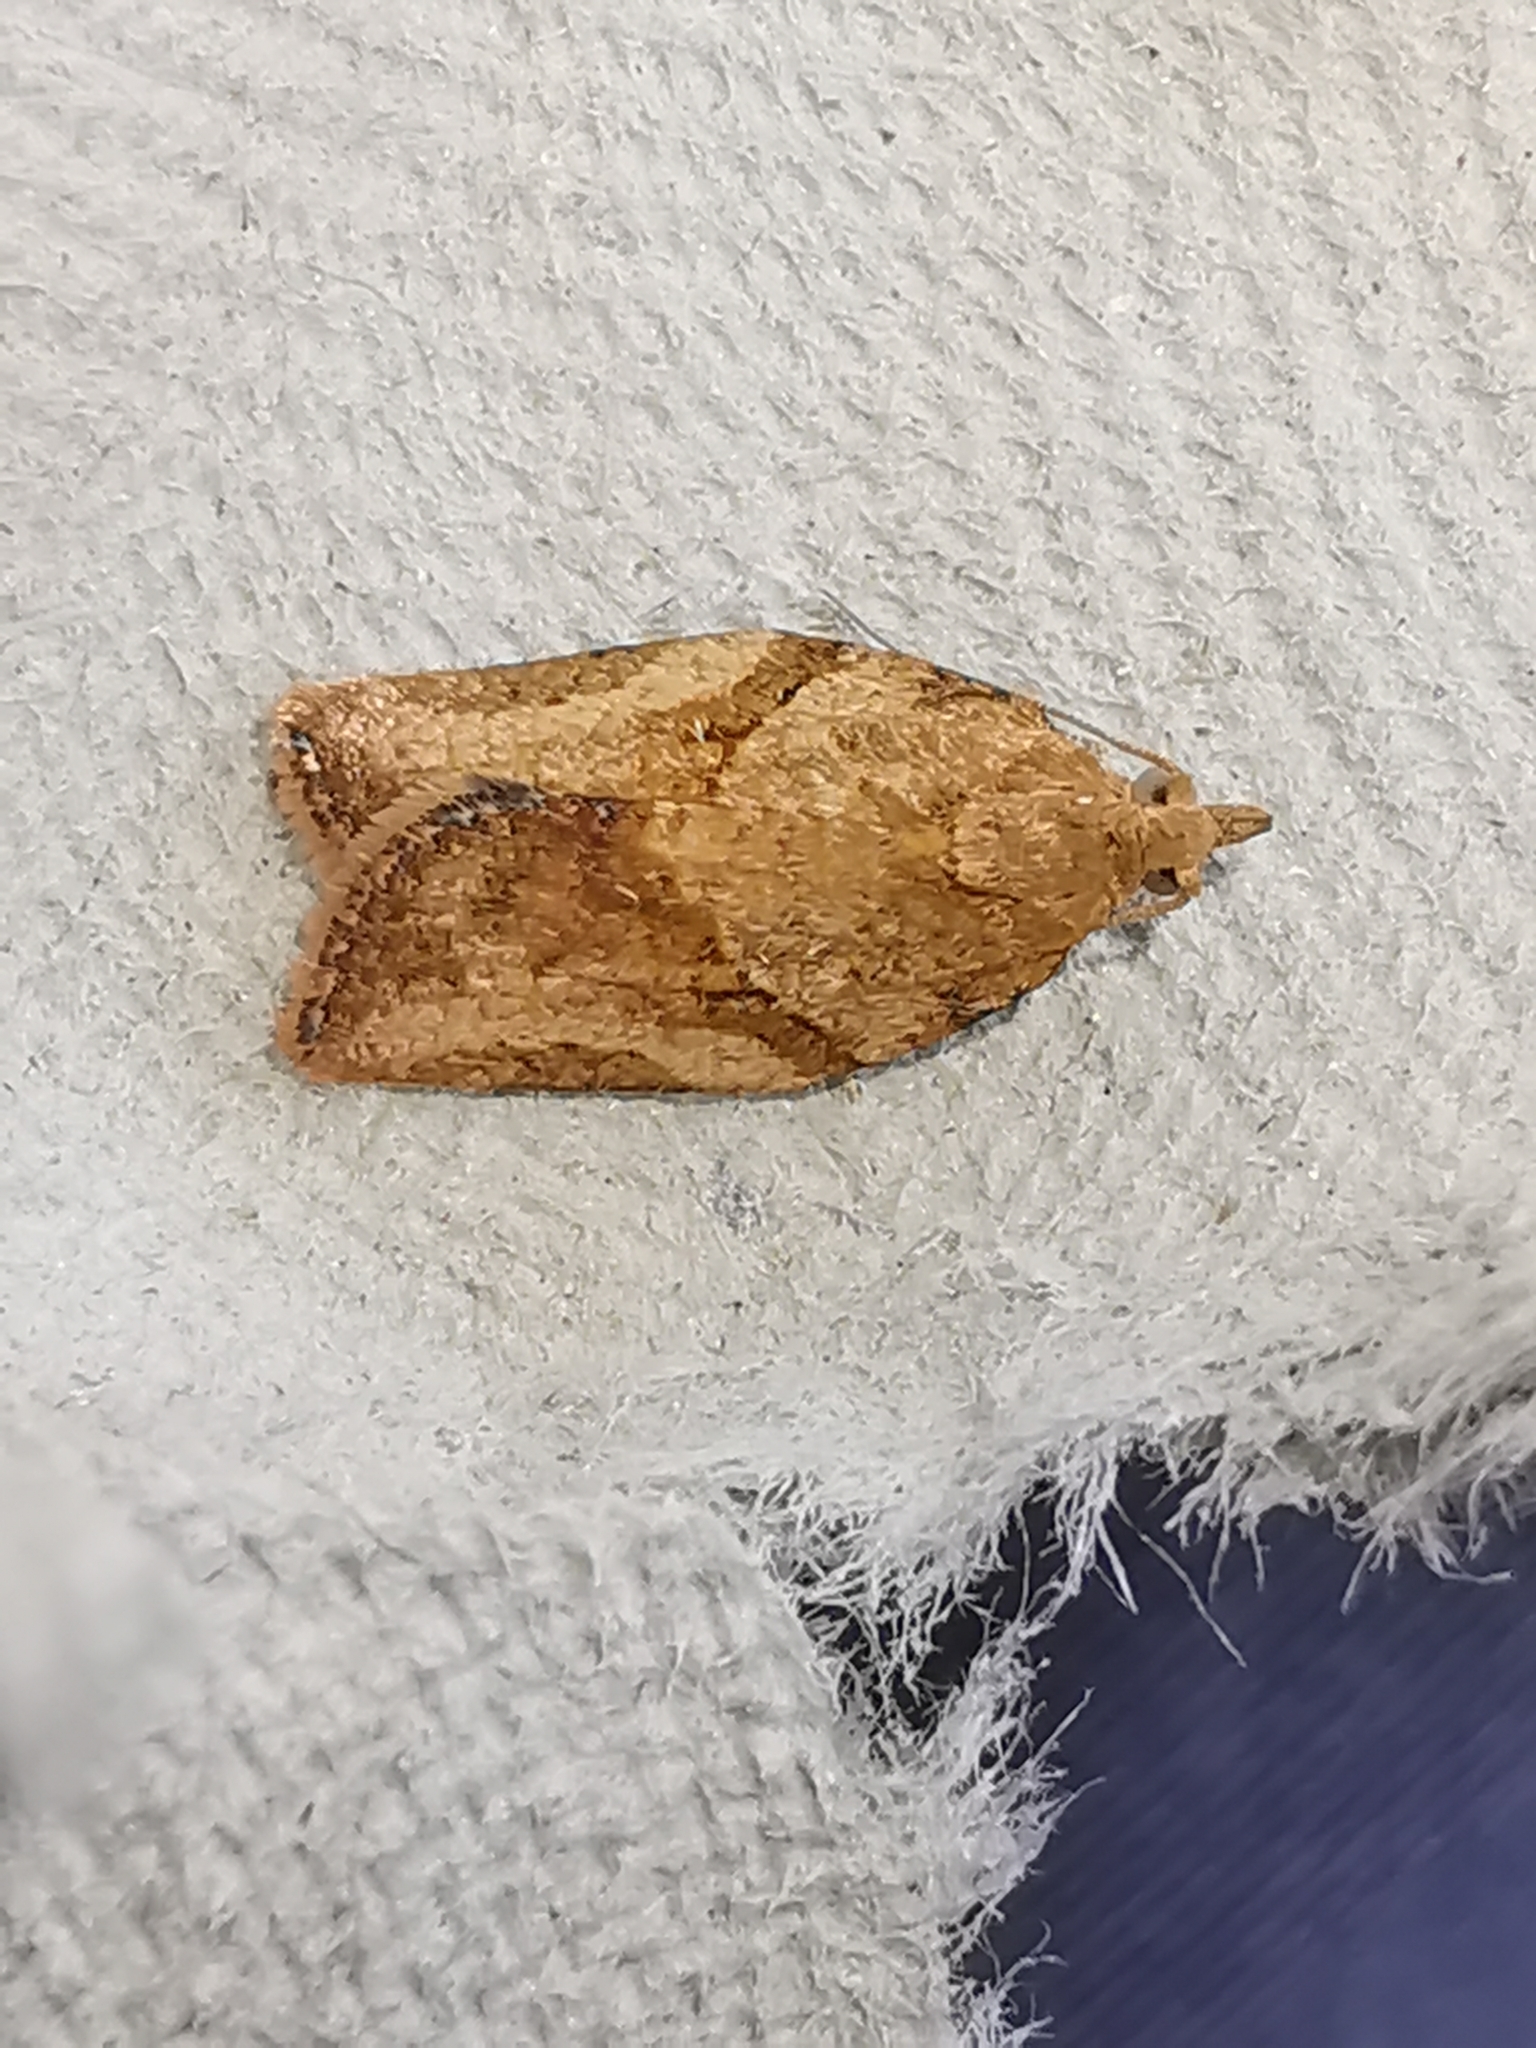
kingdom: Animalia
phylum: Arthropoda
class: Insecta
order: Lepidoptera
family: Tortricidae
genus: Epiphyas
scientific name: Epiphyas postvittana
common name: Light brown apple moth
